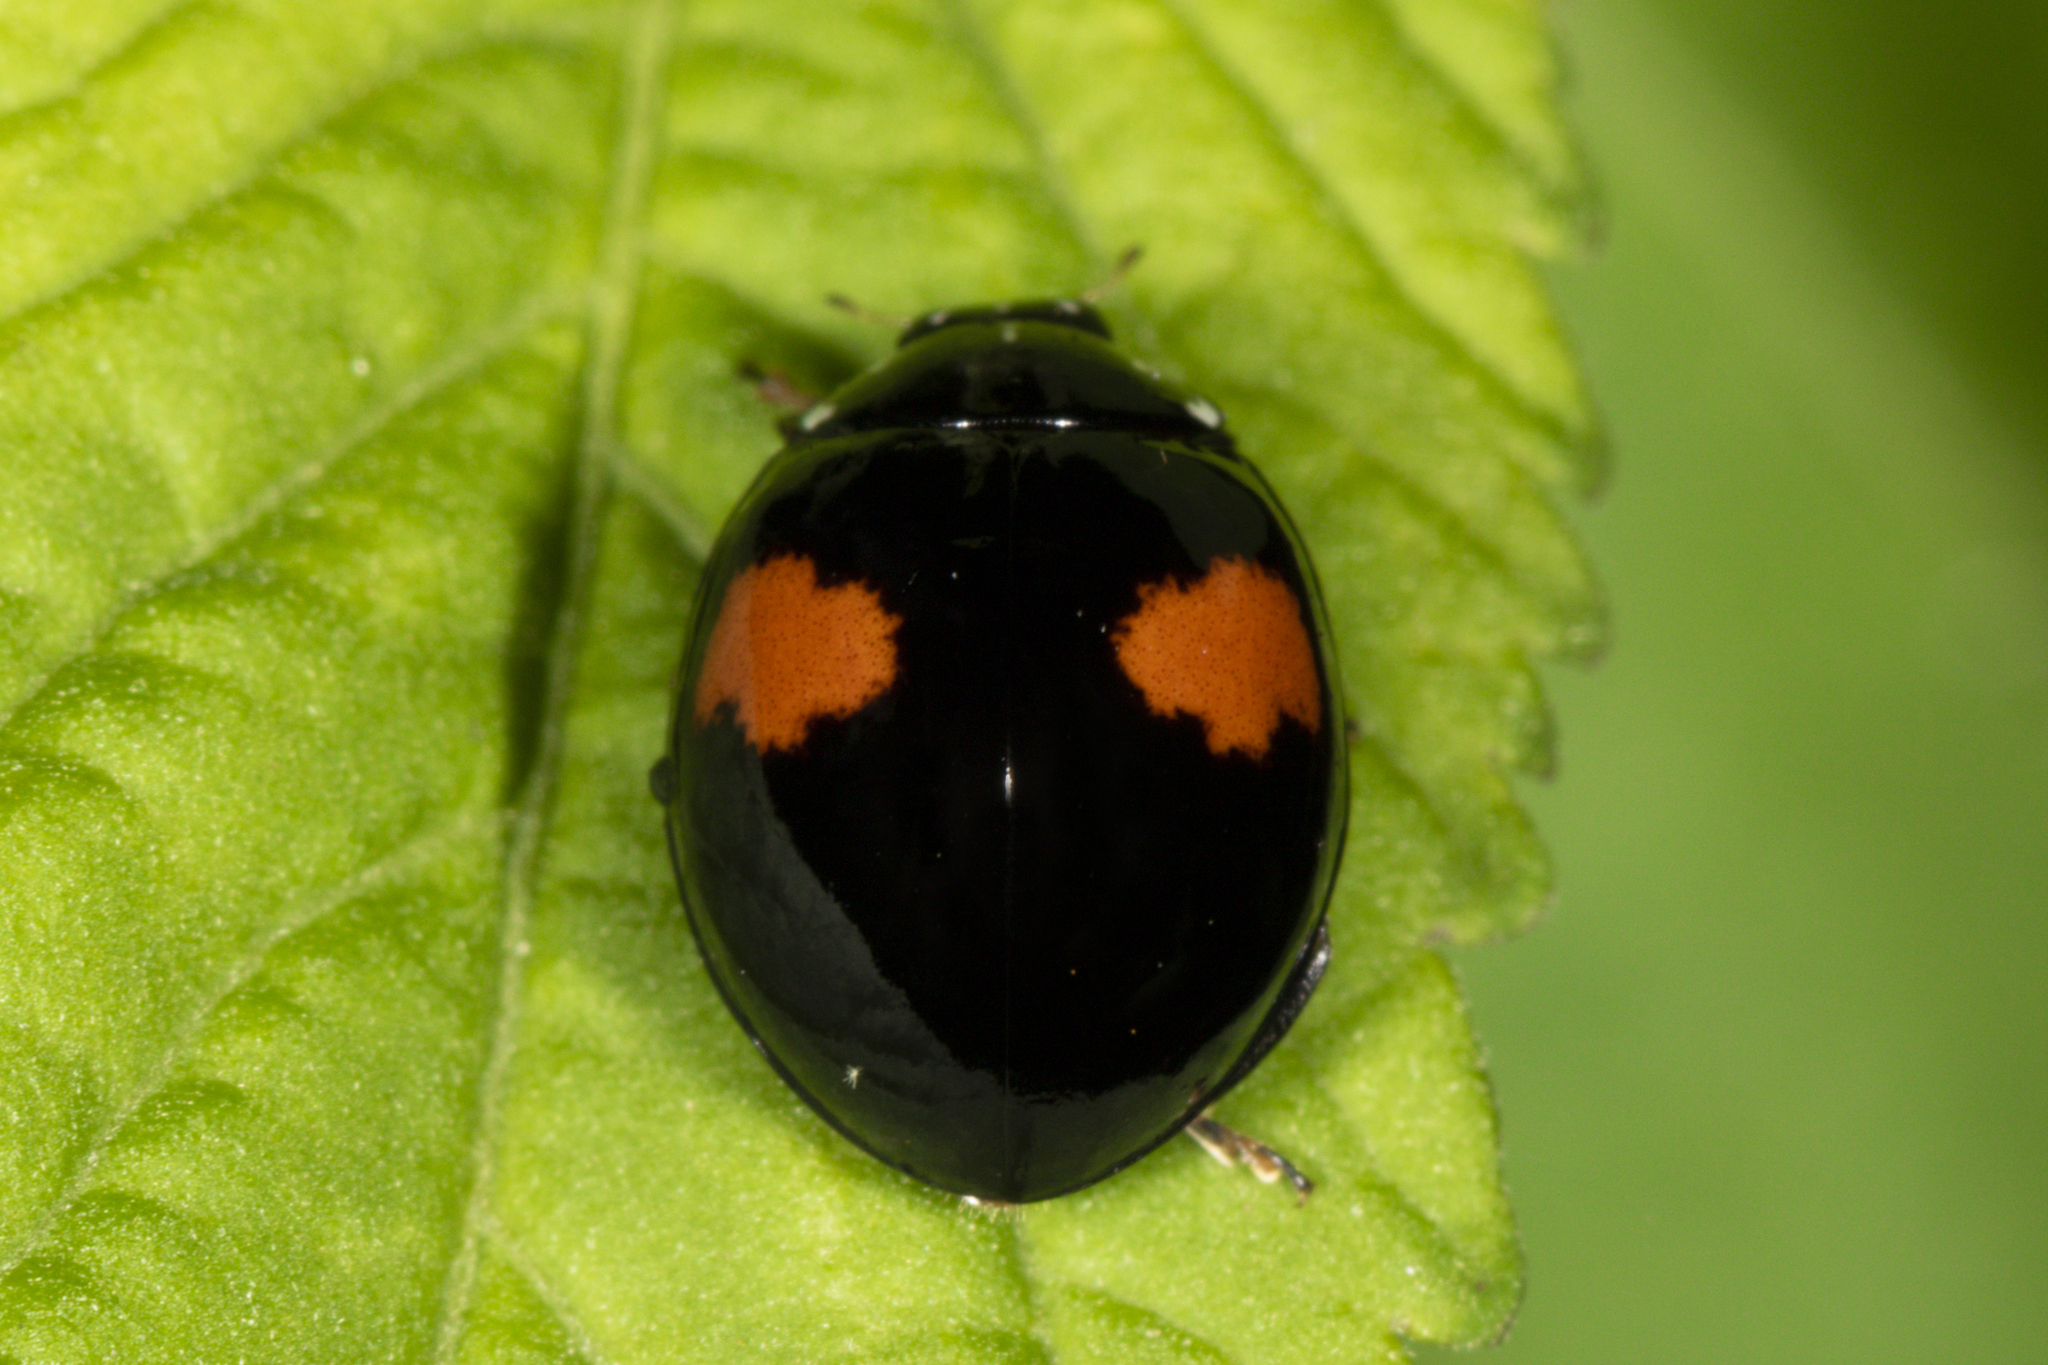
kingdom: Animalia
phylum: Arthropoda
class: Insecta
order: Coleoptera
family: Coccinellidae
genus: Olla
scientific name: Olla v-nigrum
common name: Ashy gray lady beetle
